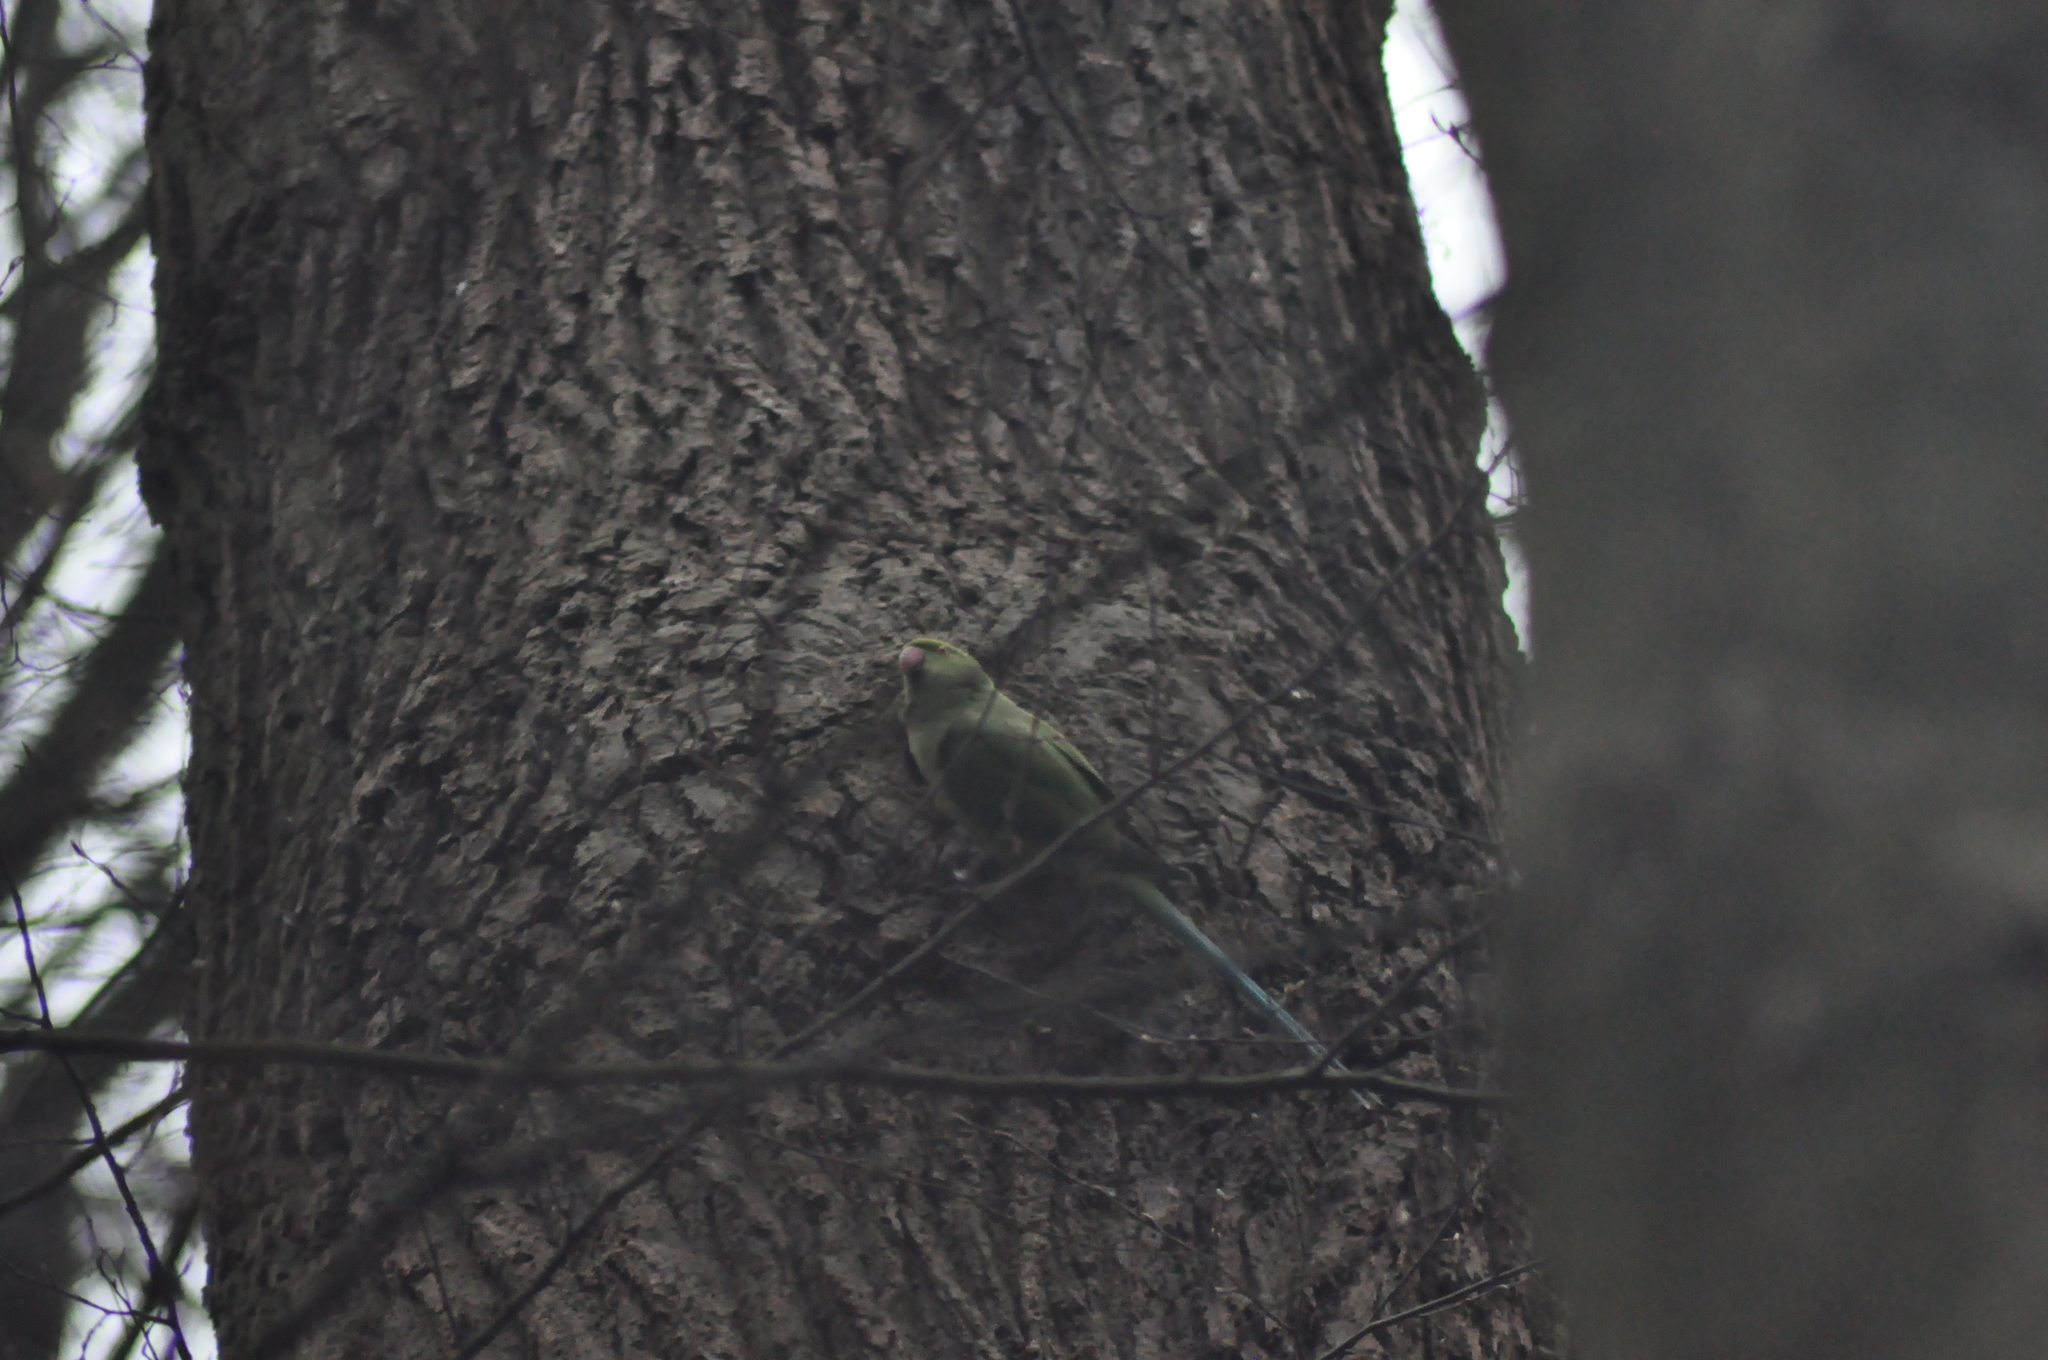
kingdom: Animalia
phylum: Chordata
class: Aves
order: Psittaciformes
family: Psittacidae
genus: Psittacula
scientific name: Psittacula krameri
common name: Rose-ringed parakeet
